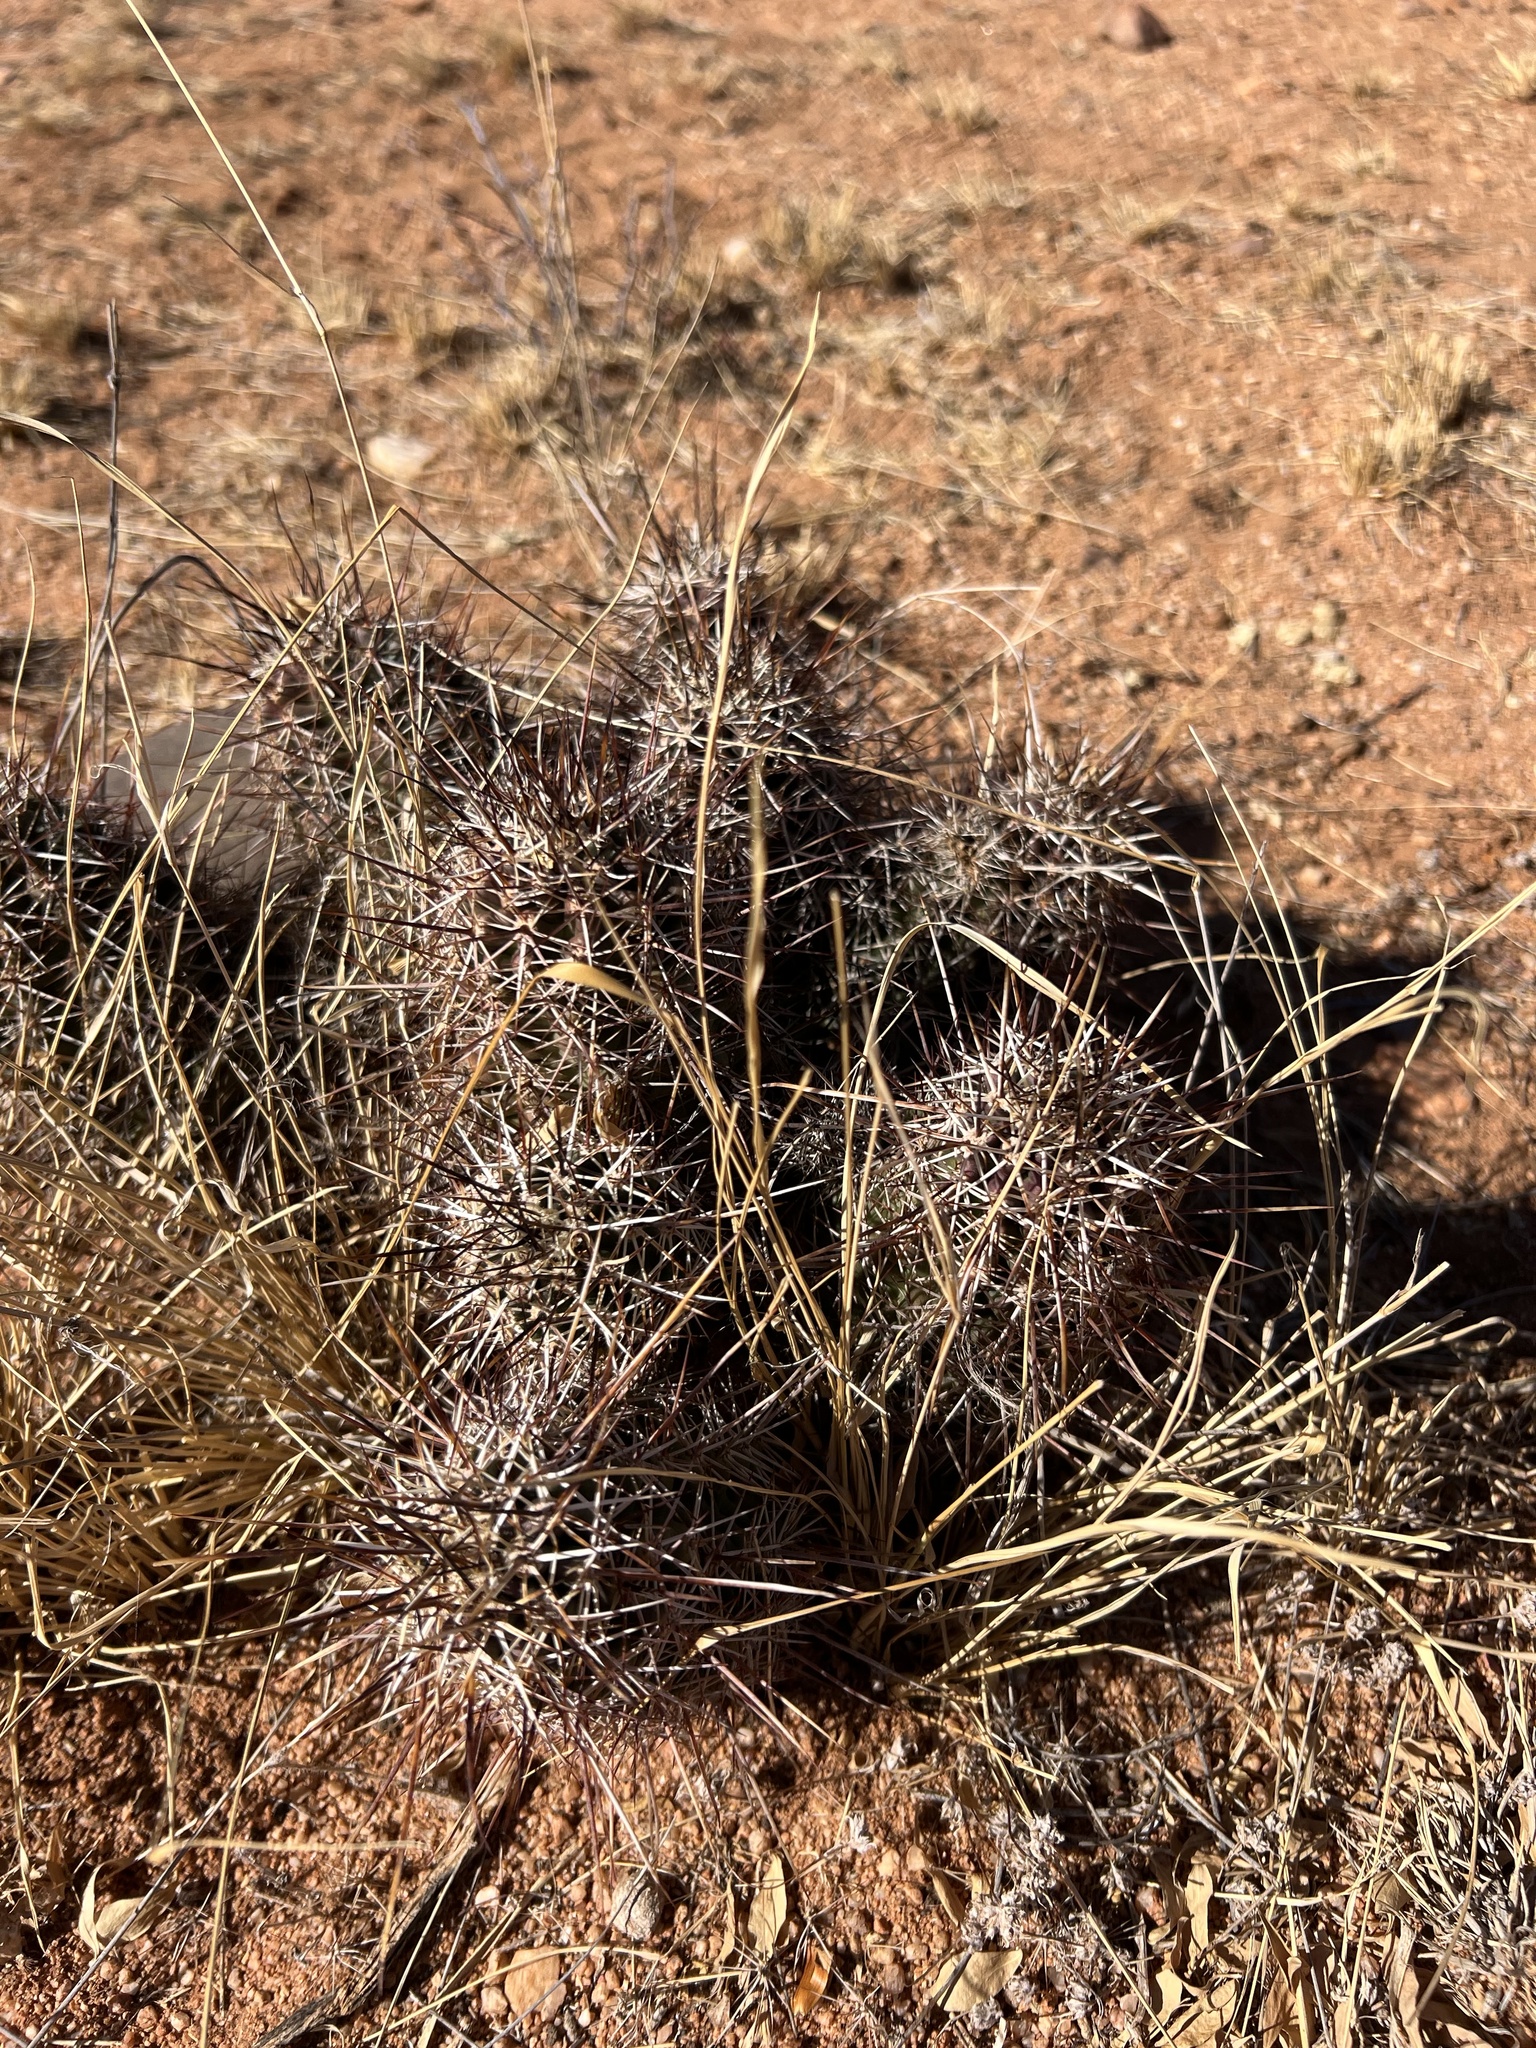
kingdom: Plantae
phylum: Tracheophyta
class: Magnoliopsida
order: Caryophyllales
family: Cactaceae
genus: Echinocereus
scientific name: Echinocereus fasciculatus
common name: Bundle hedgehog
